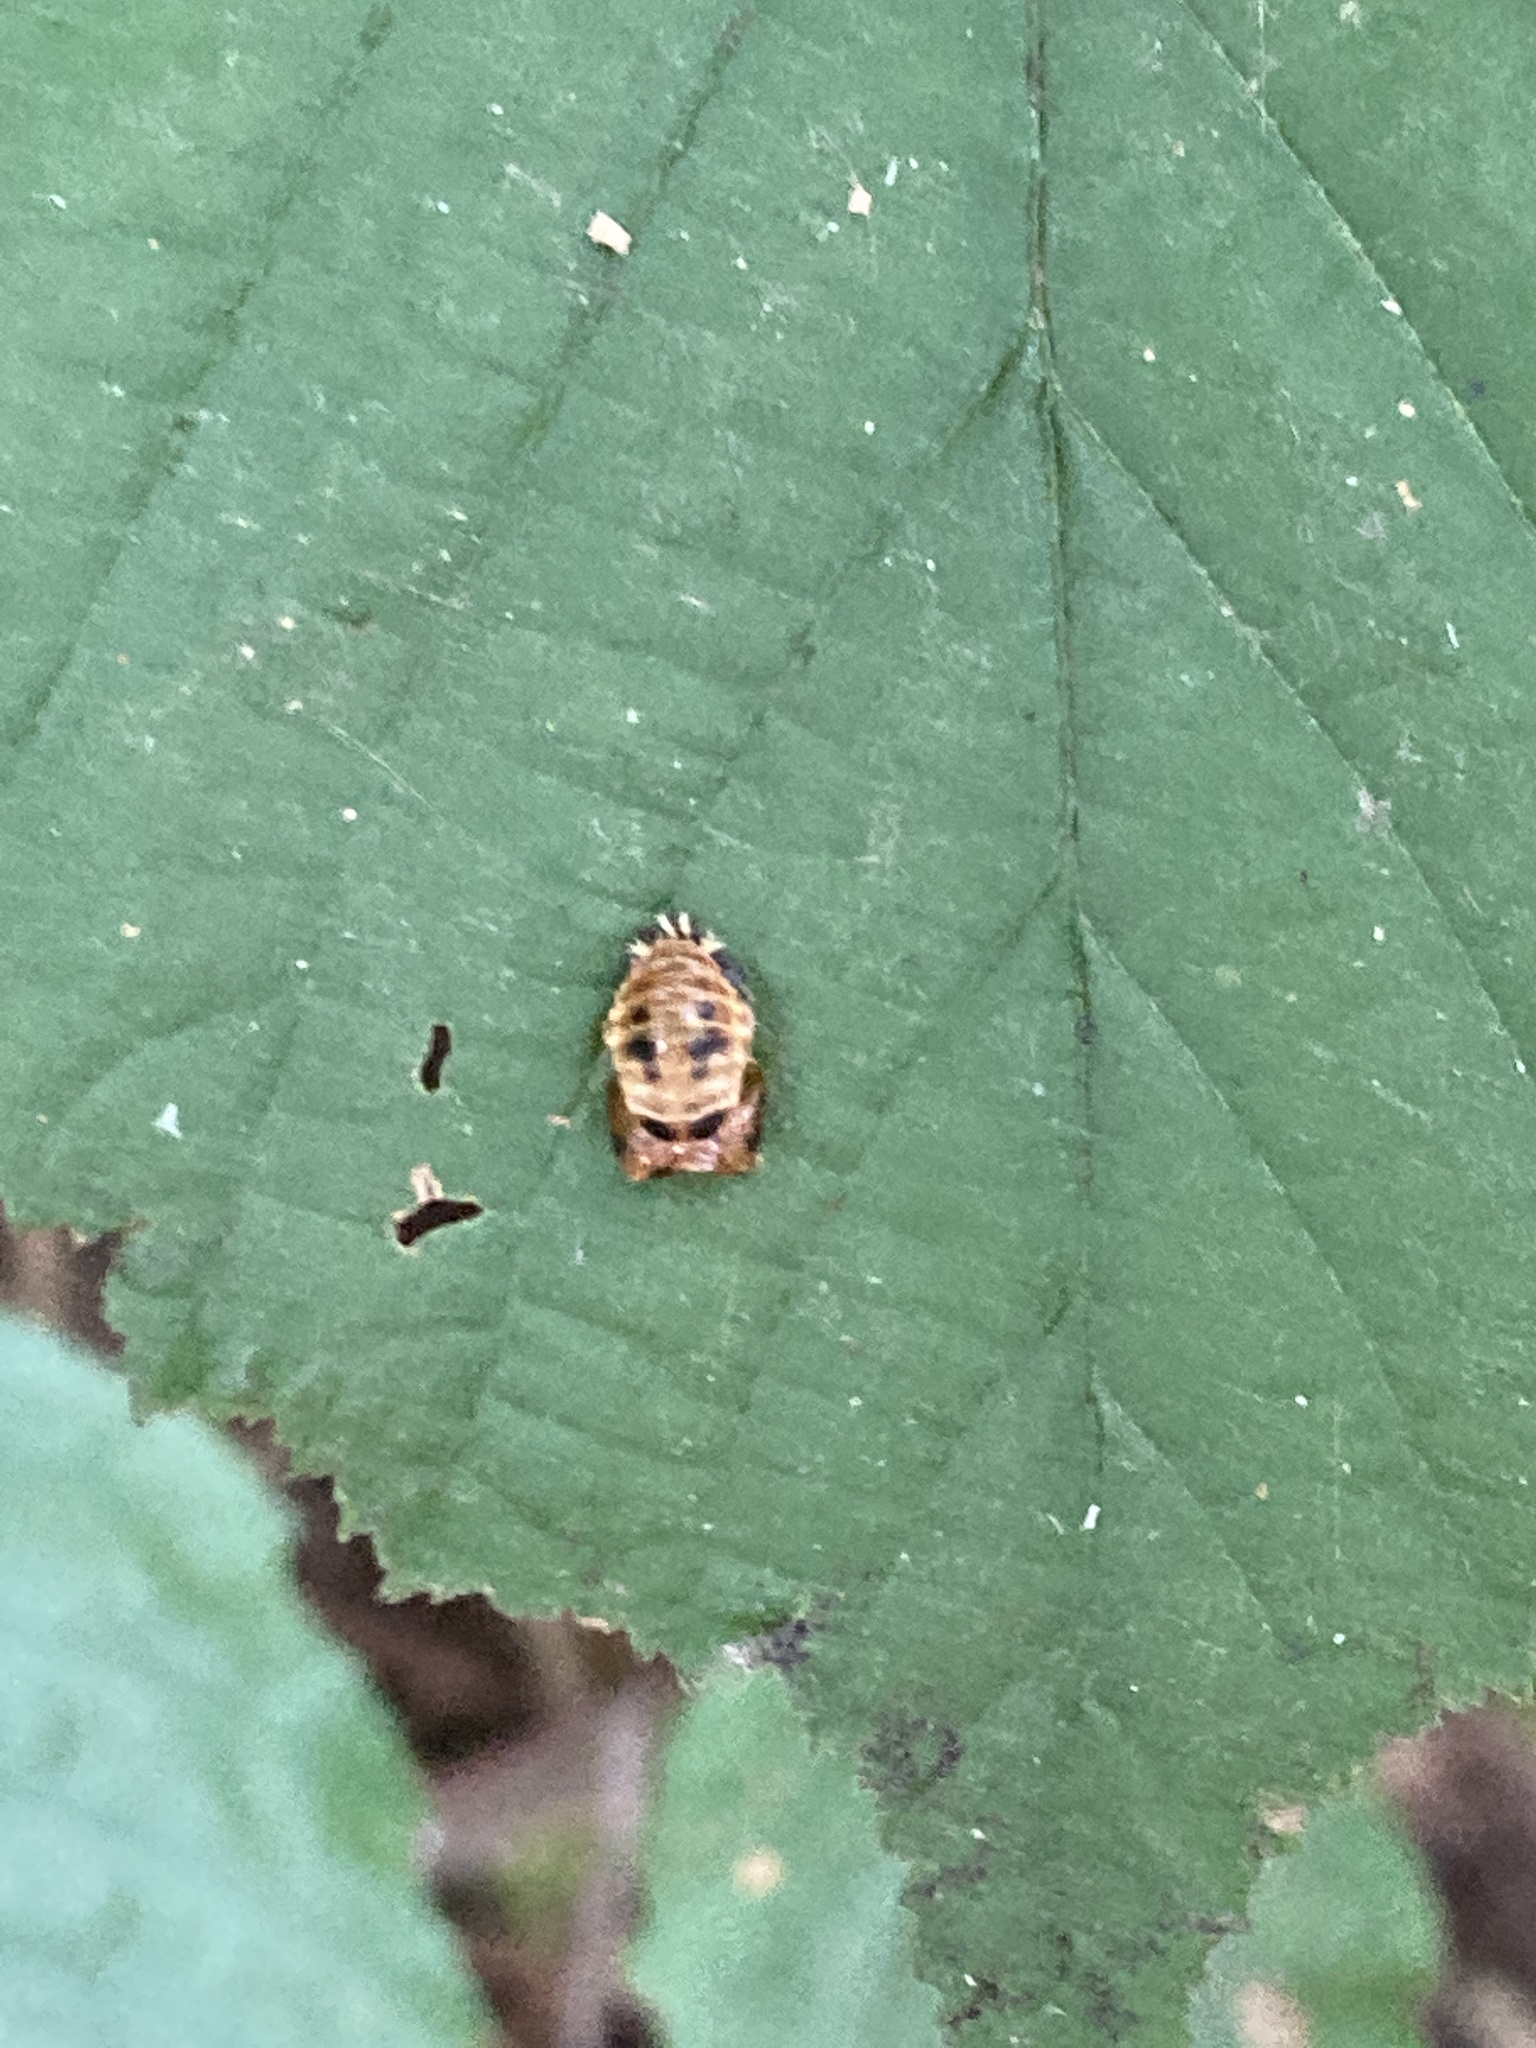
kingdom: Animalia
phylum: Arthropoda
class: Insecta
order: Coleoptera
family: Coccinellidae
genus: Harmonia
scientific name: Harmonia axyridis
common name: Harlequin ladybird
